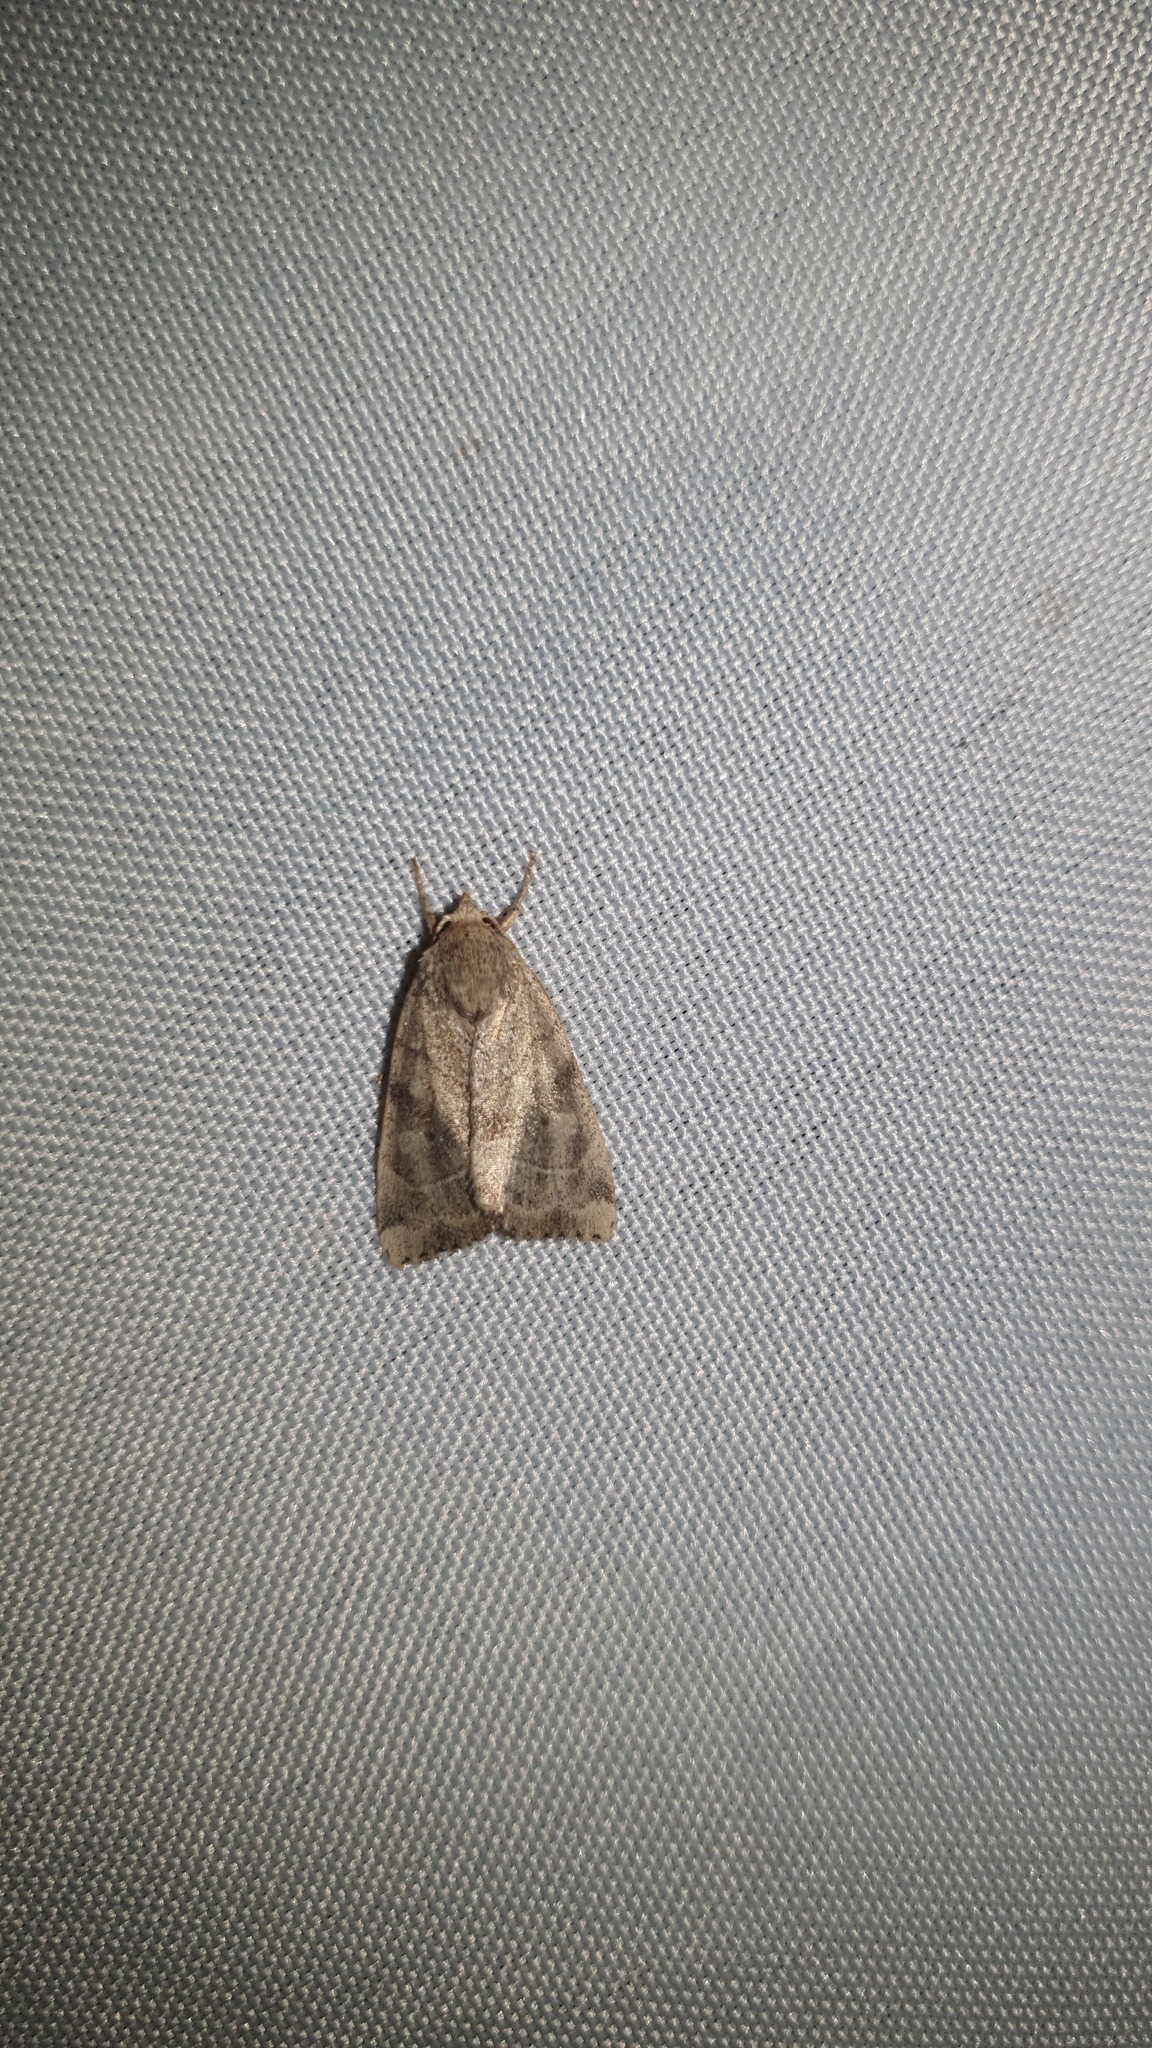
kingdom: Animalia
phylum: Arthropoda
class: Insecta
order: Lepidoptera
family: Noctuidae
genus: Cosmia
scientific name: Cosmia trapezina
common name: Dun-bar
